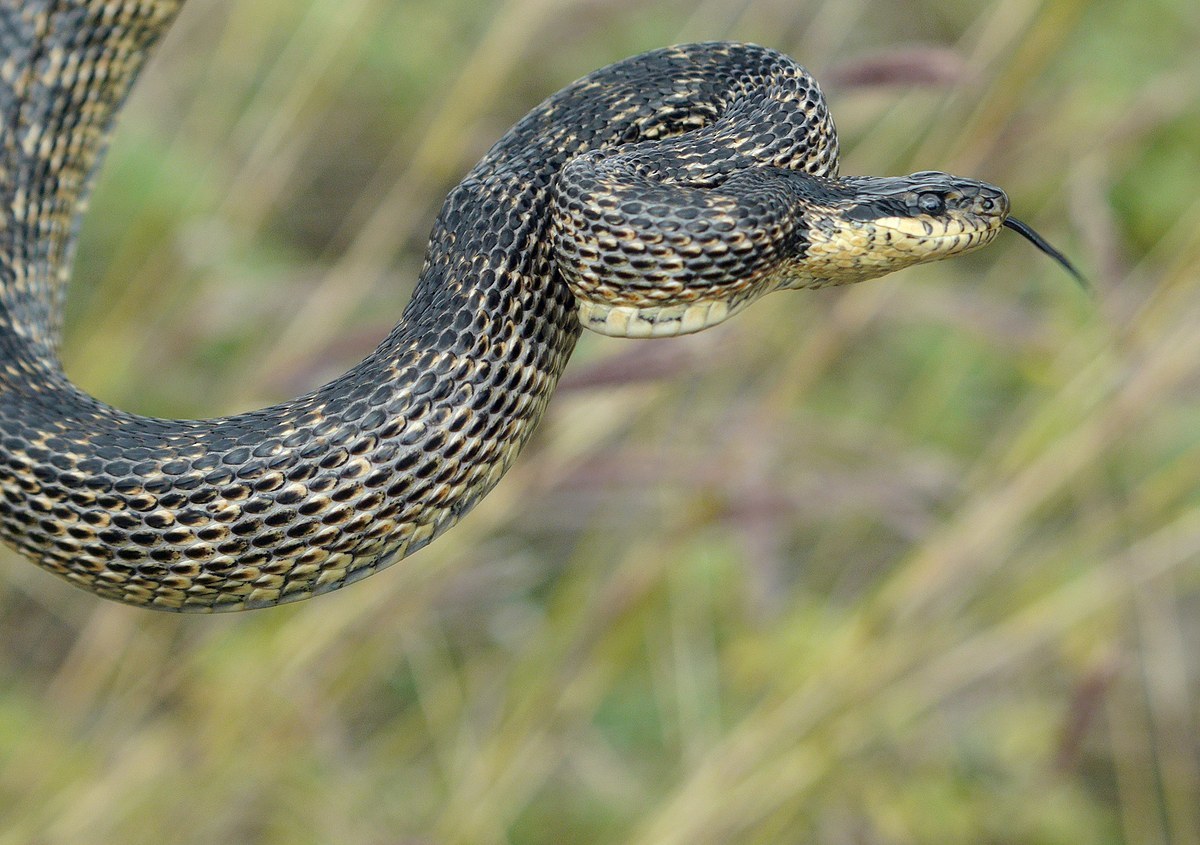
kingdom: Animalia
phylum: Chordata
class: Squamata
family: Colubridae
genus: Elaphe
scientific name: Elaphe sauromates
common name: Eastern four-lined ratsnake
